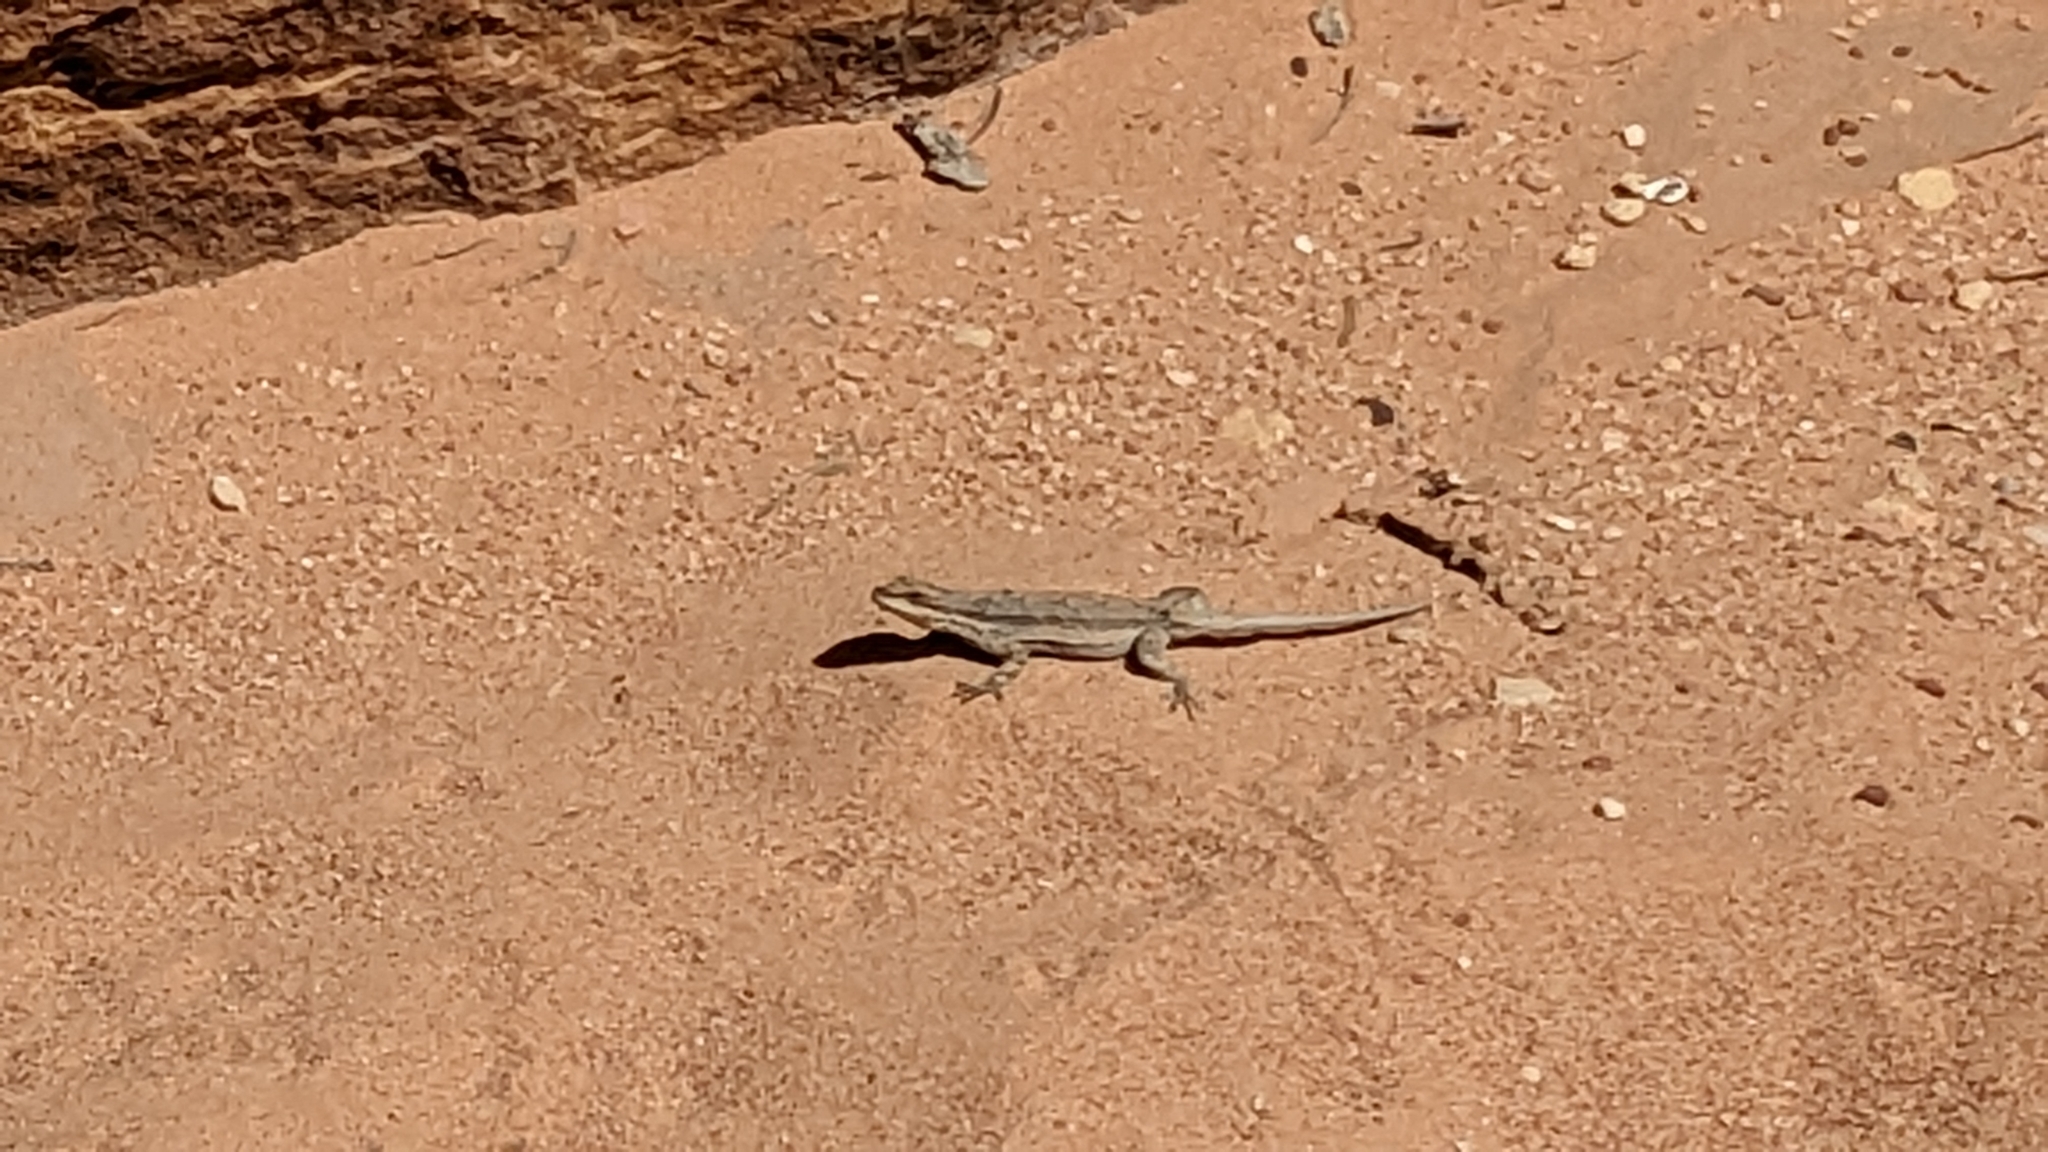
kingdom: Animalia
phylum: Chordata
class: Squamata
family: Phrynosomatidae
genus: Urosaurus
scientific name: Urosaurus ornatus
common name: Ornate tree lizard
